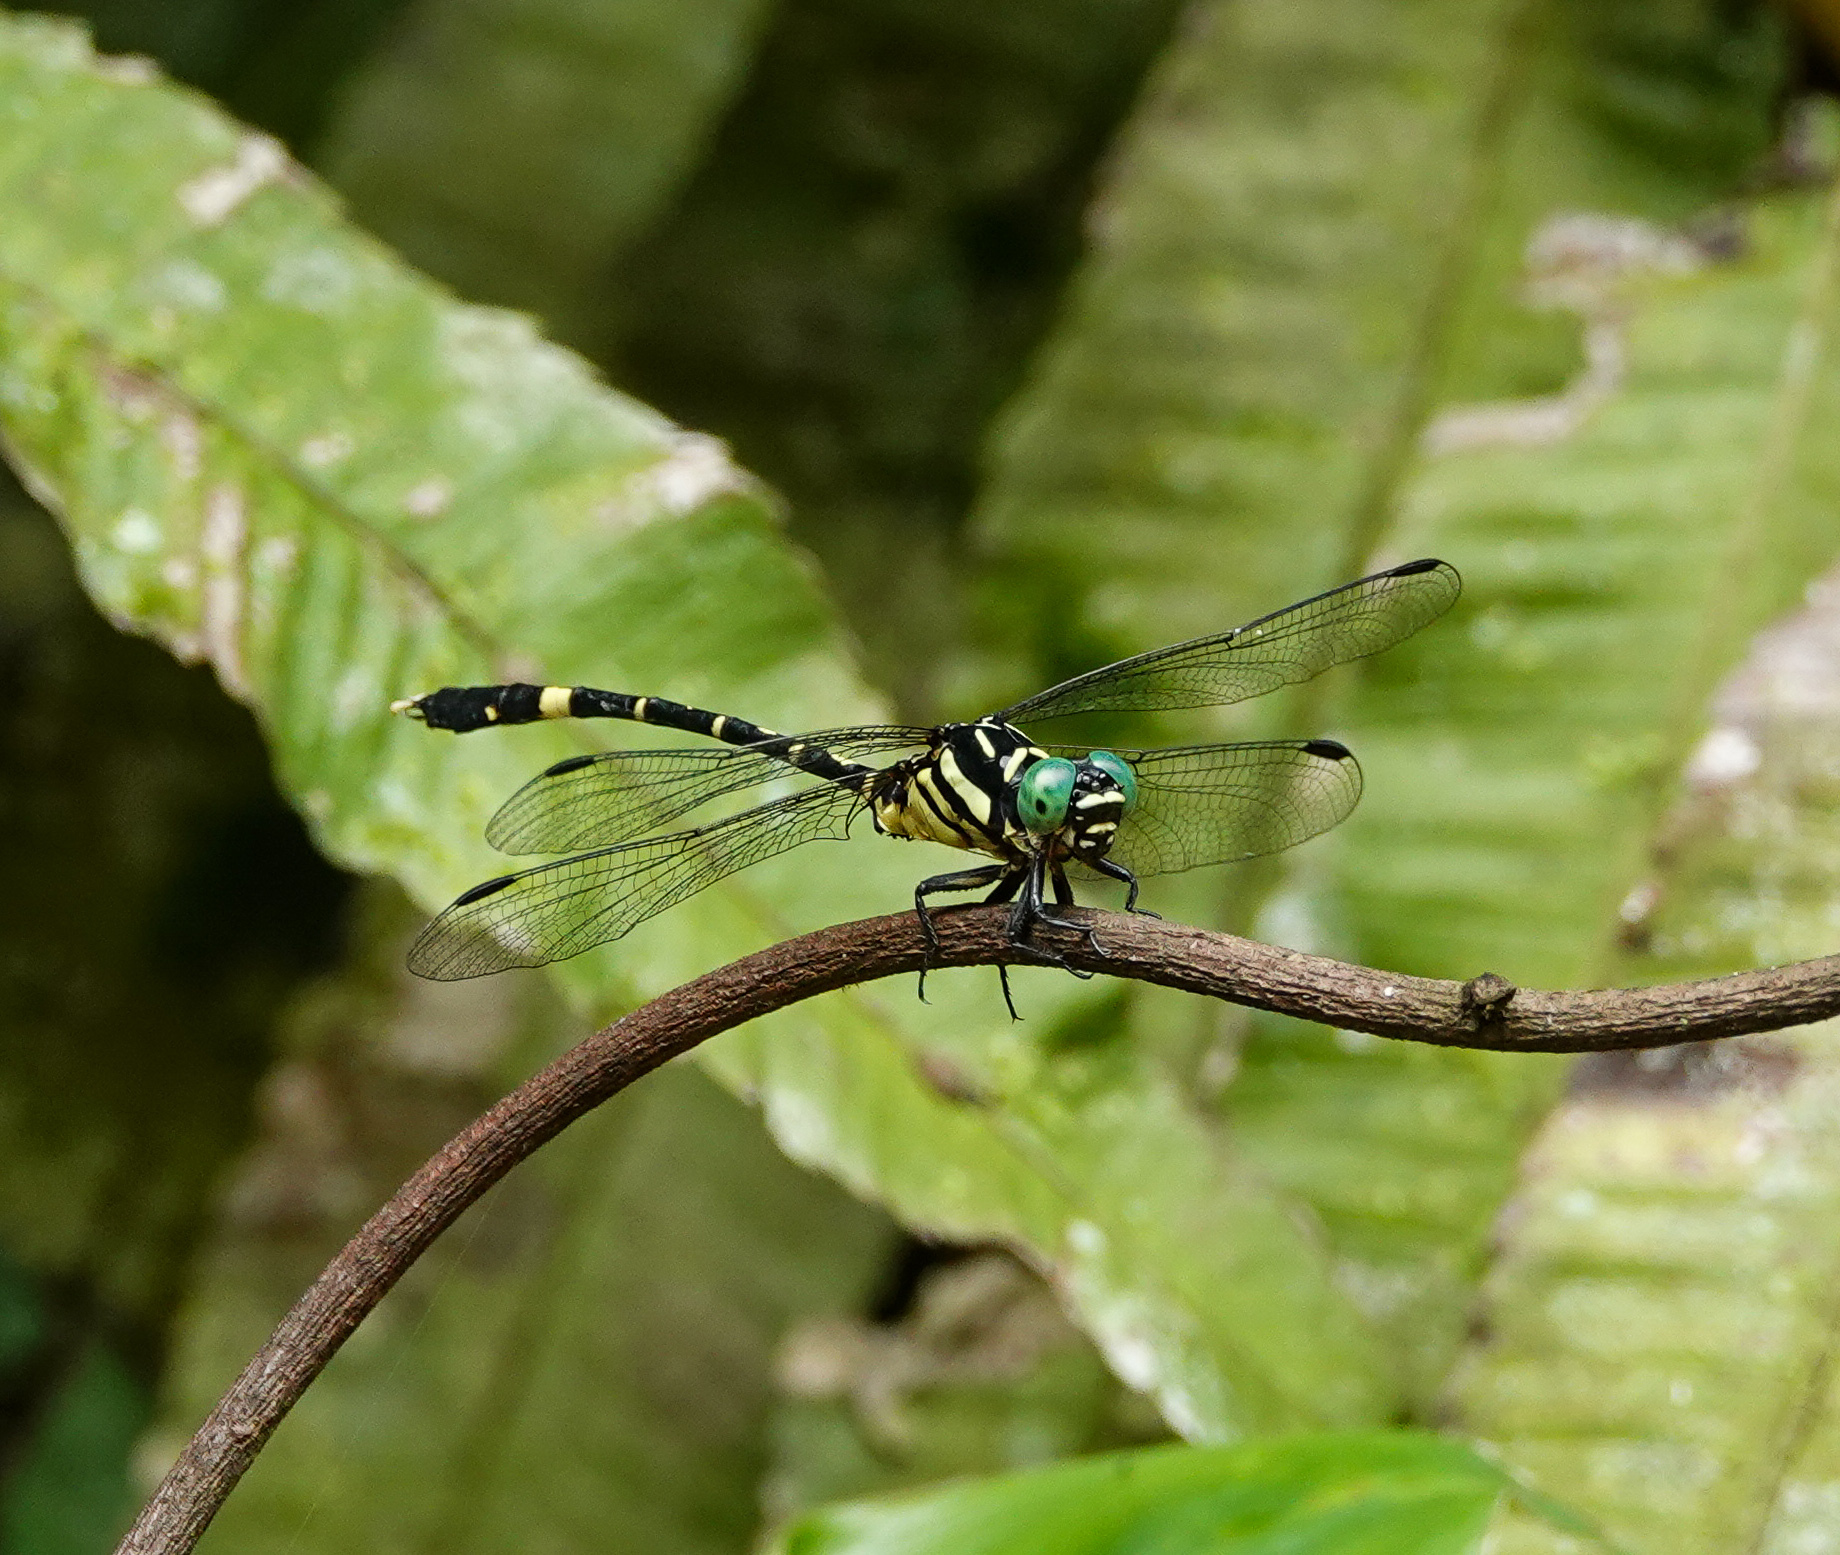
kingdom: Animalia
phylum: Arthropoda
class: Insecta
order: Odonata
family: Gomphidae
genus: Orientogomphus
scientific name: Orientogomphus indicus
